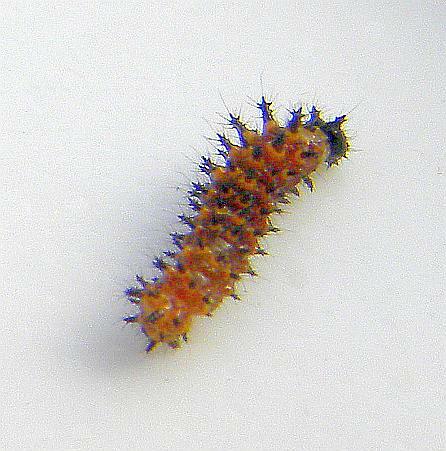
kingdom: Animalia
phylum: Arthropoda
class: Insecta
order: Lepidoptera
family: Nymphalidae
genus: Polygonia
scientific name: Polygonia progne
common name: Gray comma
